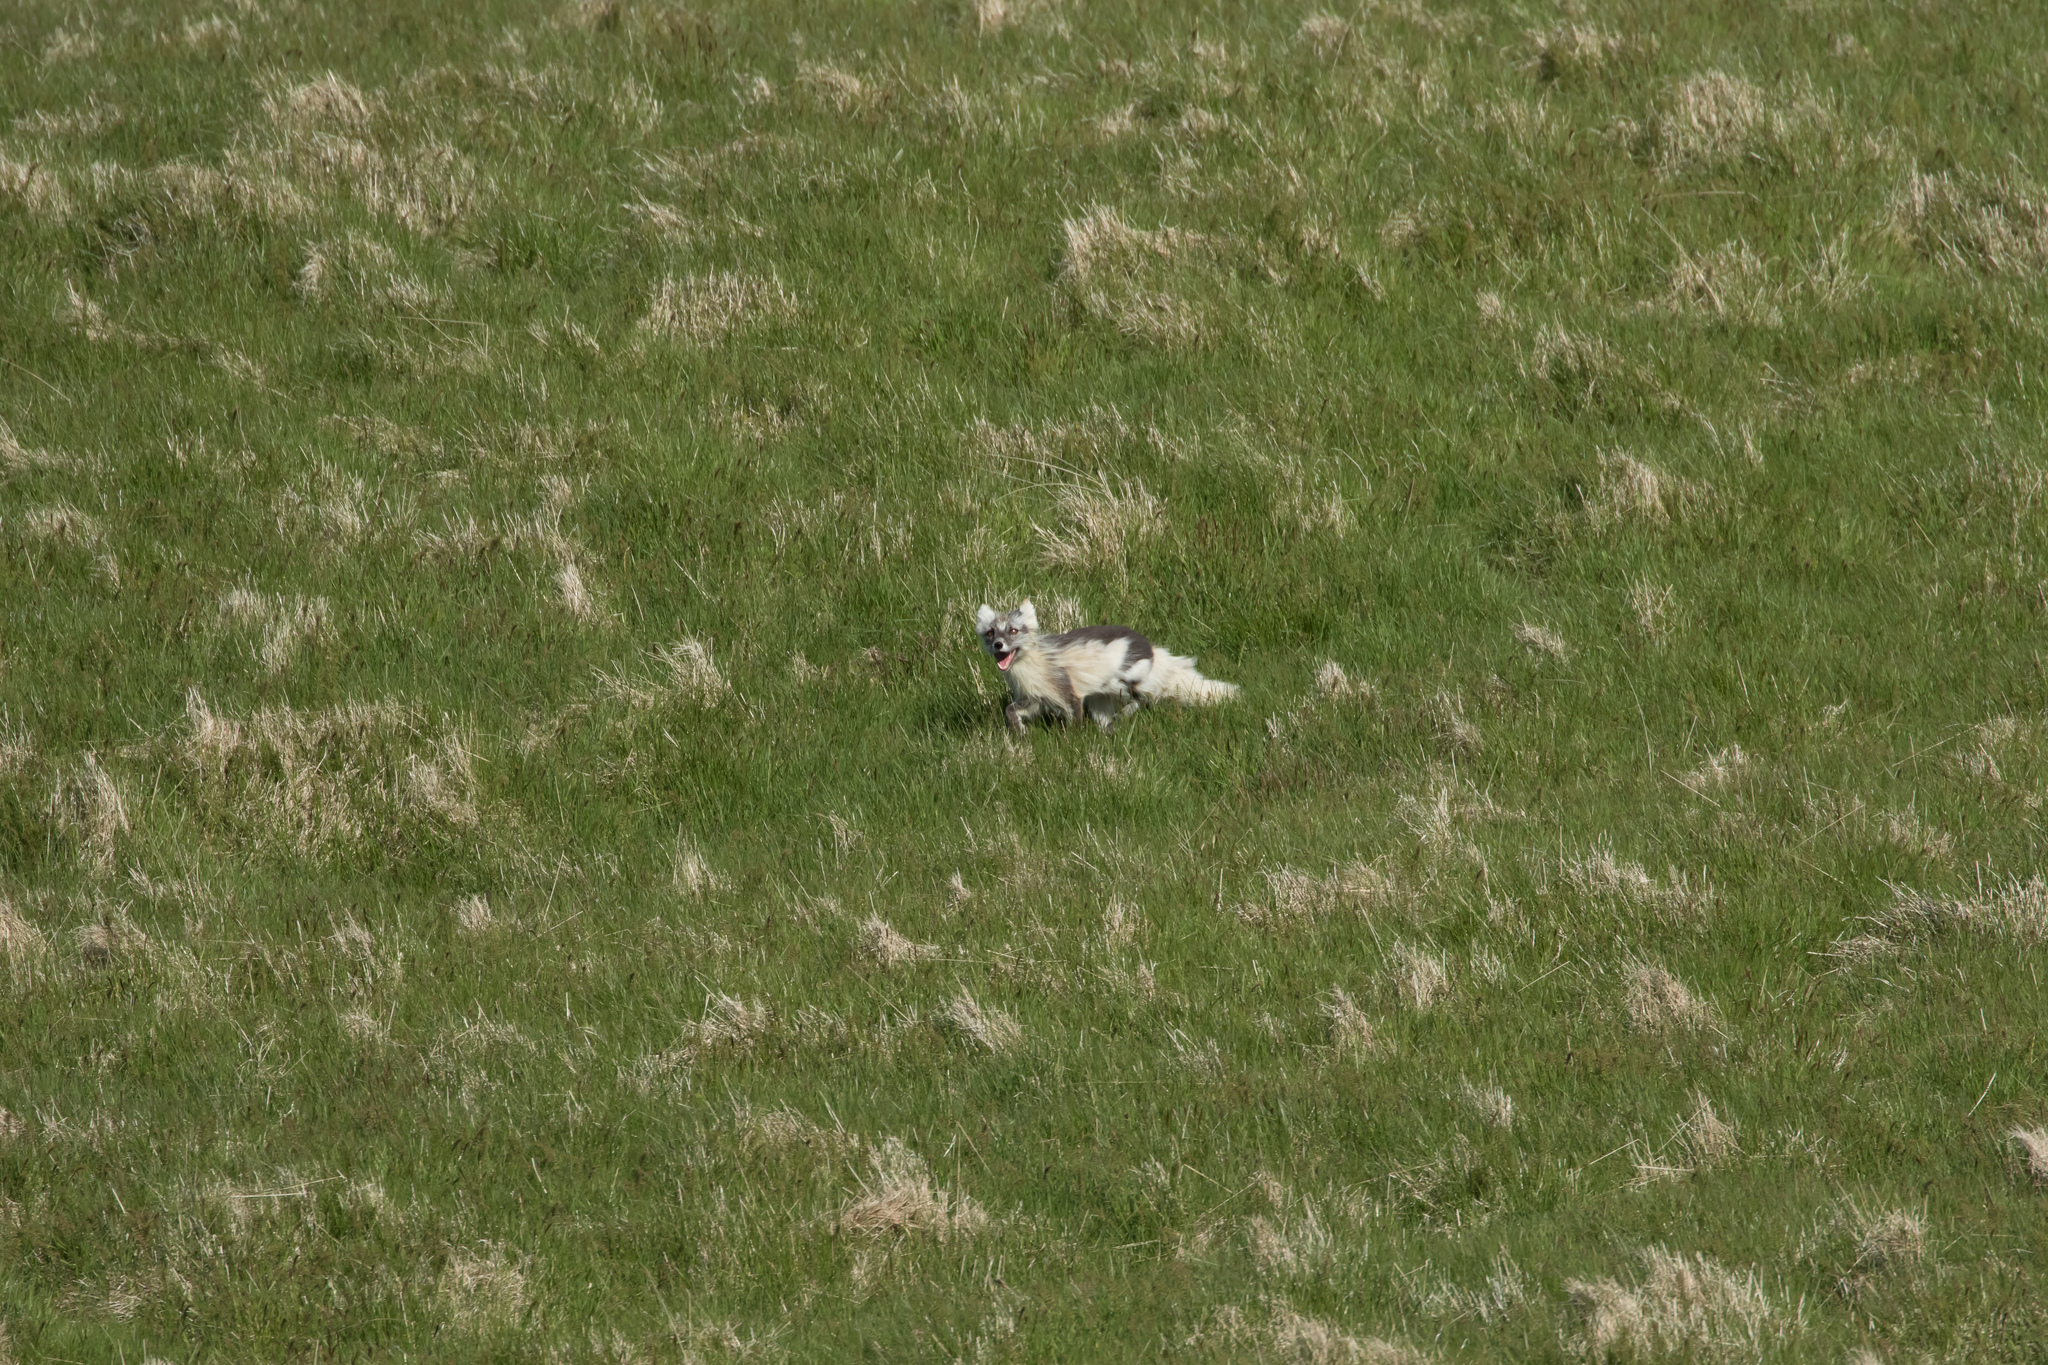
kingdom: Animalia
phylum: Chordata
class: Mammalia
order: Carnivora
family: Canidae
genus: Vulpes
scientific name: Vulpes lagopus
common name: Arctic fox
